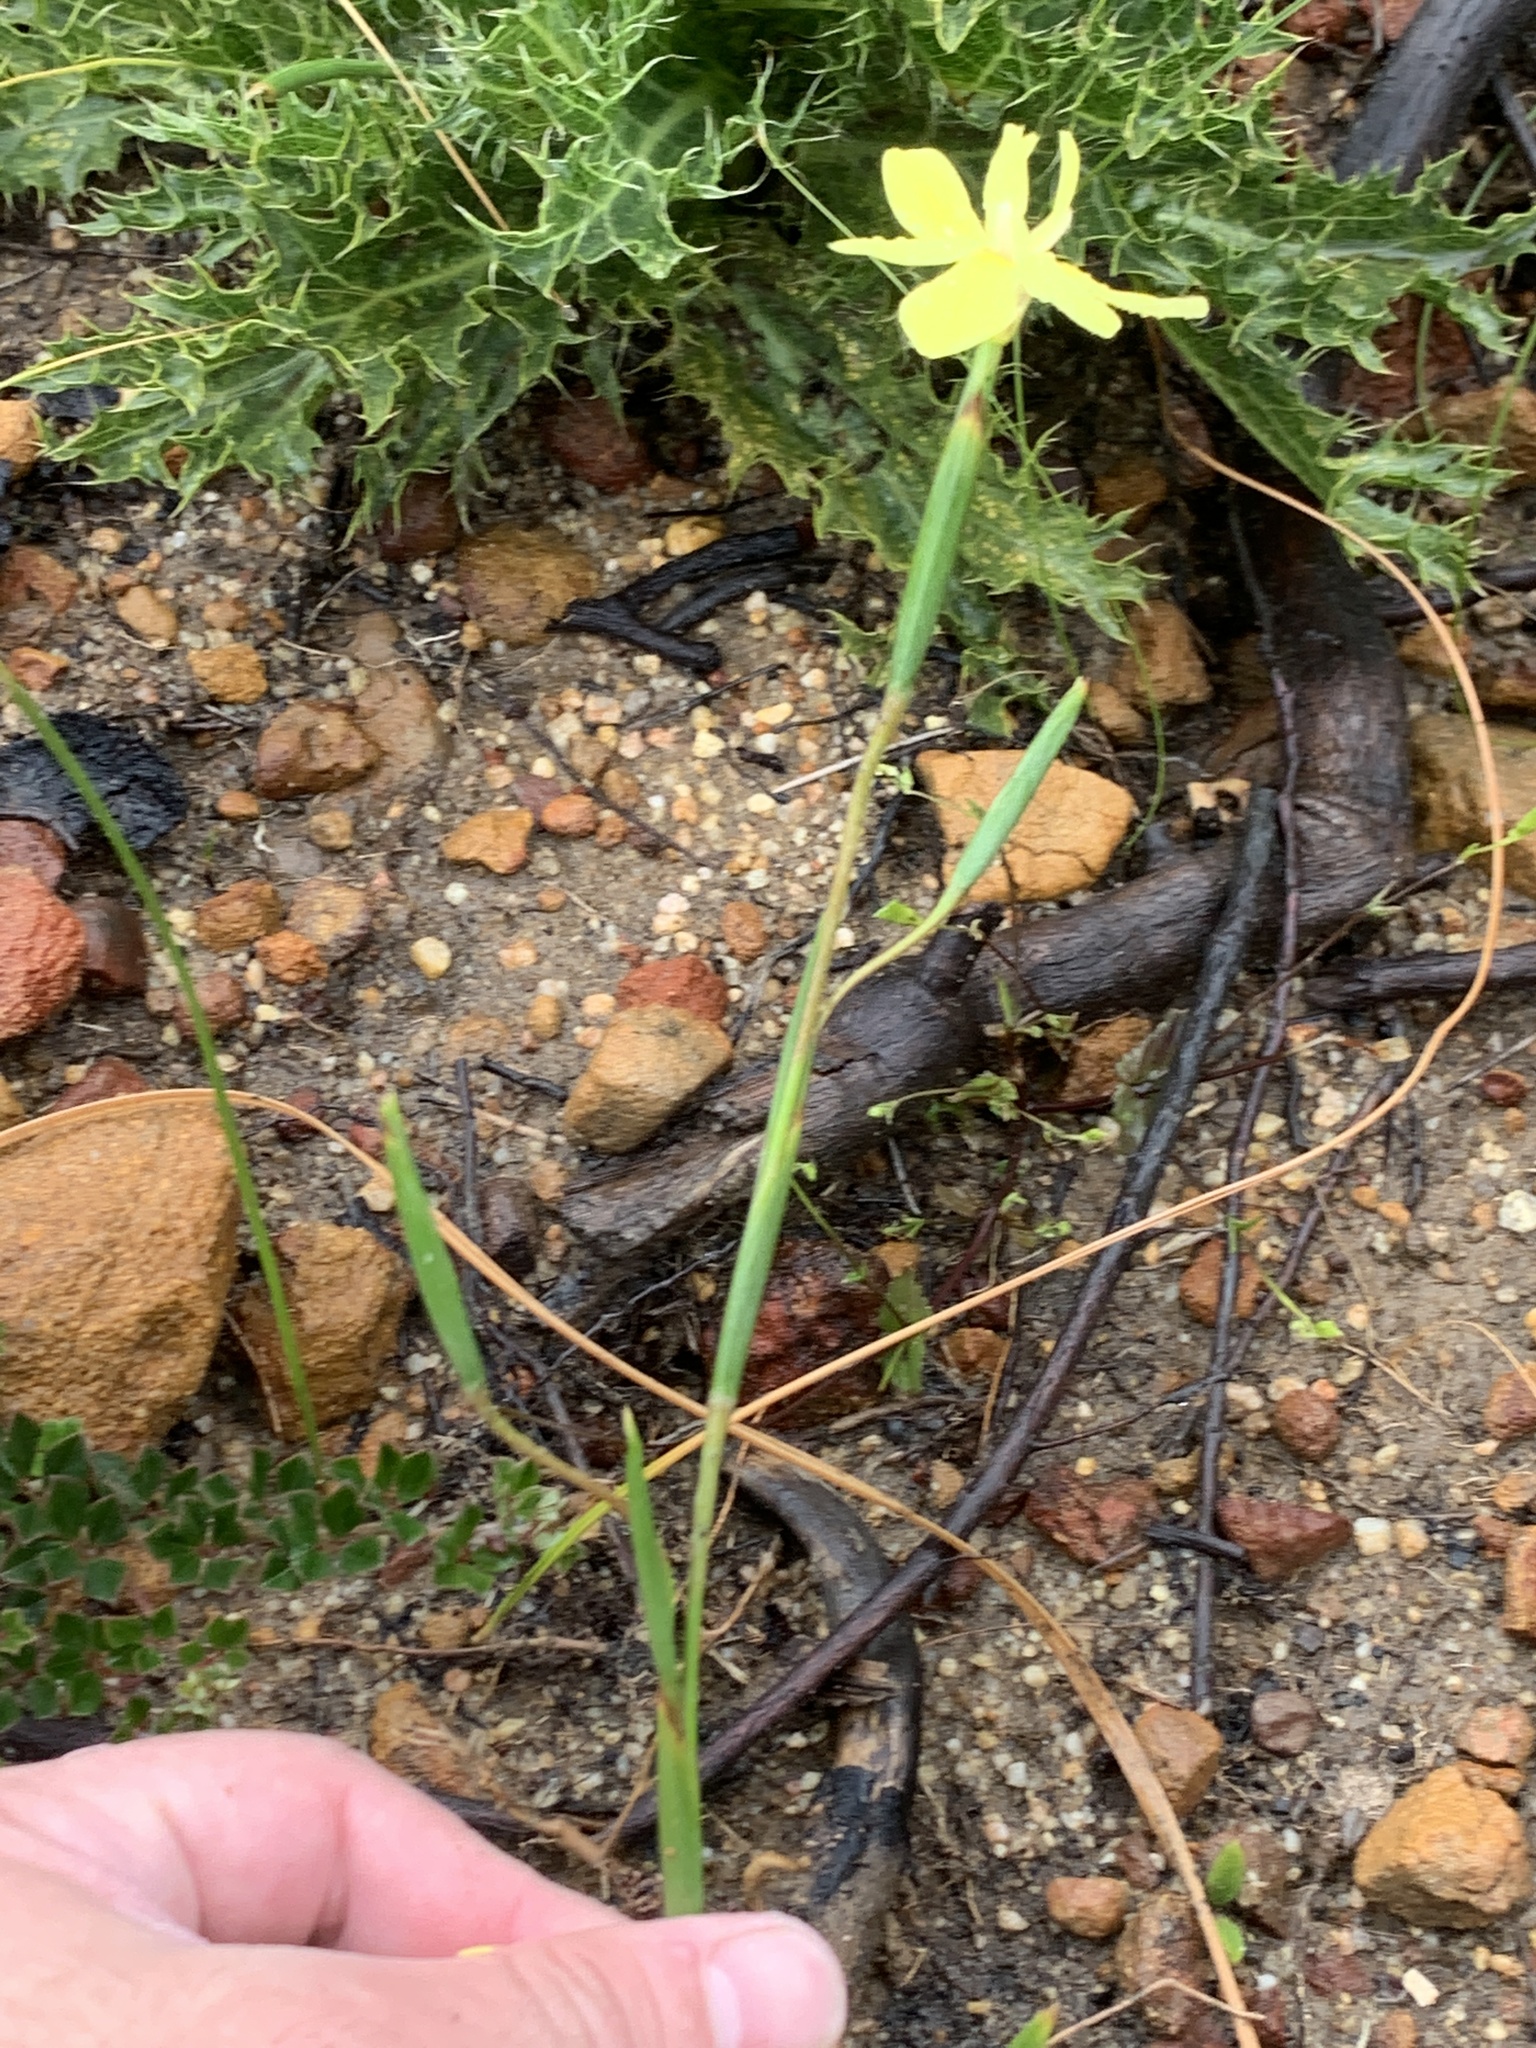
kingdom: Plantae
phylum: Tracheophyta
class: Liliopsida
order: Asparagales
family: Iridaceae
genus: Moraea
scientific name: Moraea bituminosa
